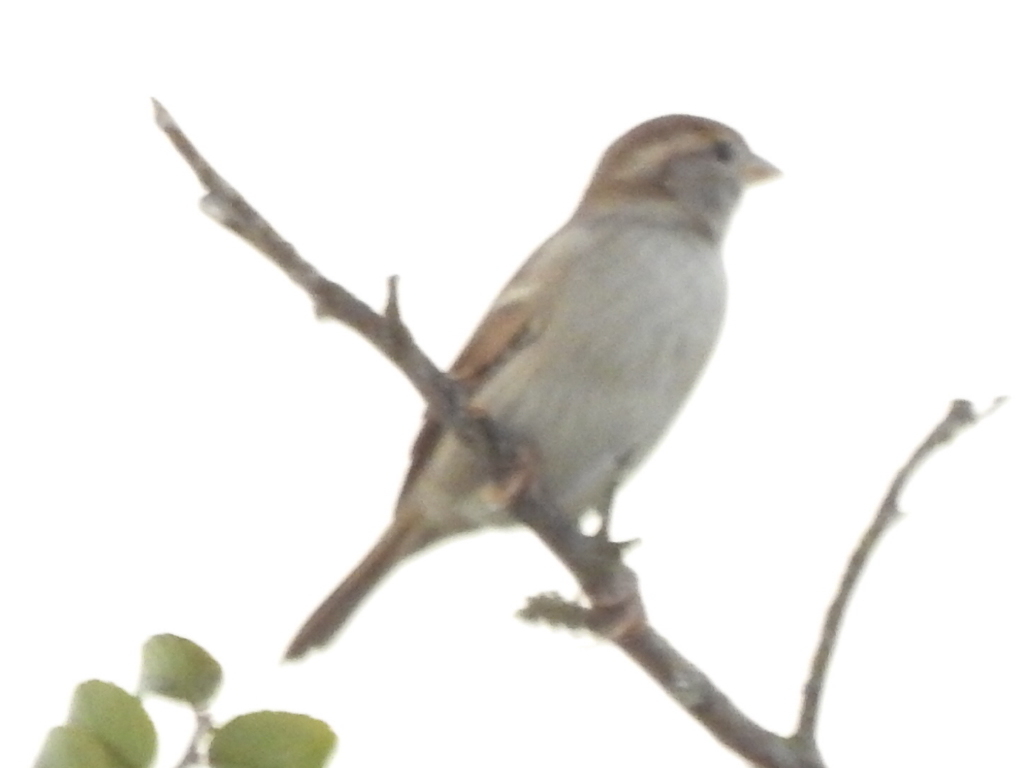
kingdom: Animalia
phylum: Chordata
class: Aves
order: Passeriformes
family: Passeridae
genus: Passer
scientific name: Passer domesticus
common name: House sparrow
